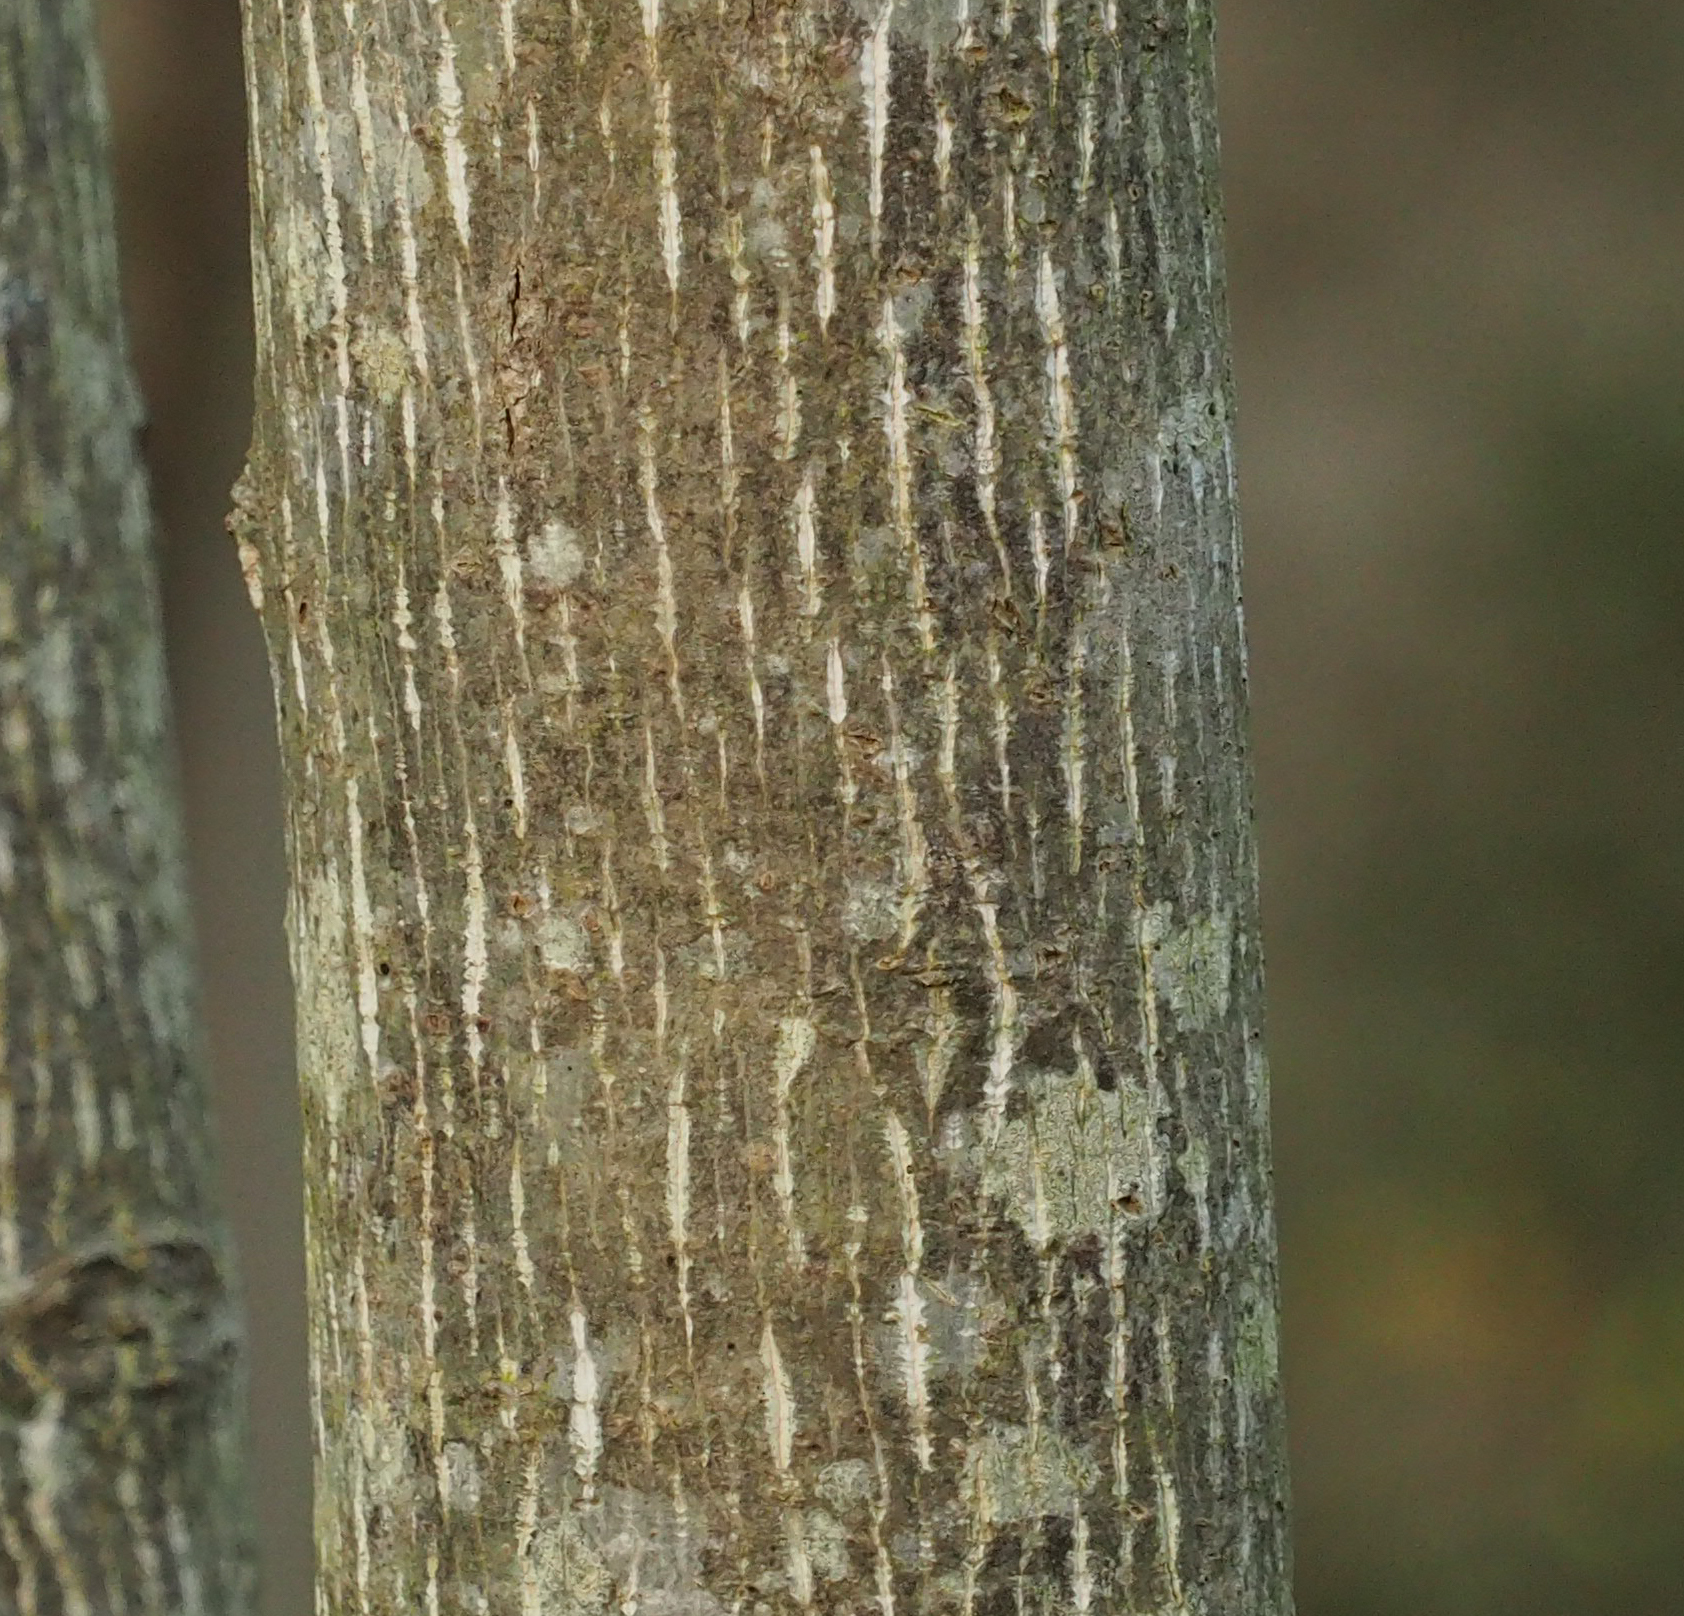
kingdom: Plantae
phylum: Tracheophyta
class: Magnoliopsida
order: Magnoliales
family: Magnoliaceae
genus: Liriodendron
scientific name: Liriodendron tulipifera
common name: Tulip tree
